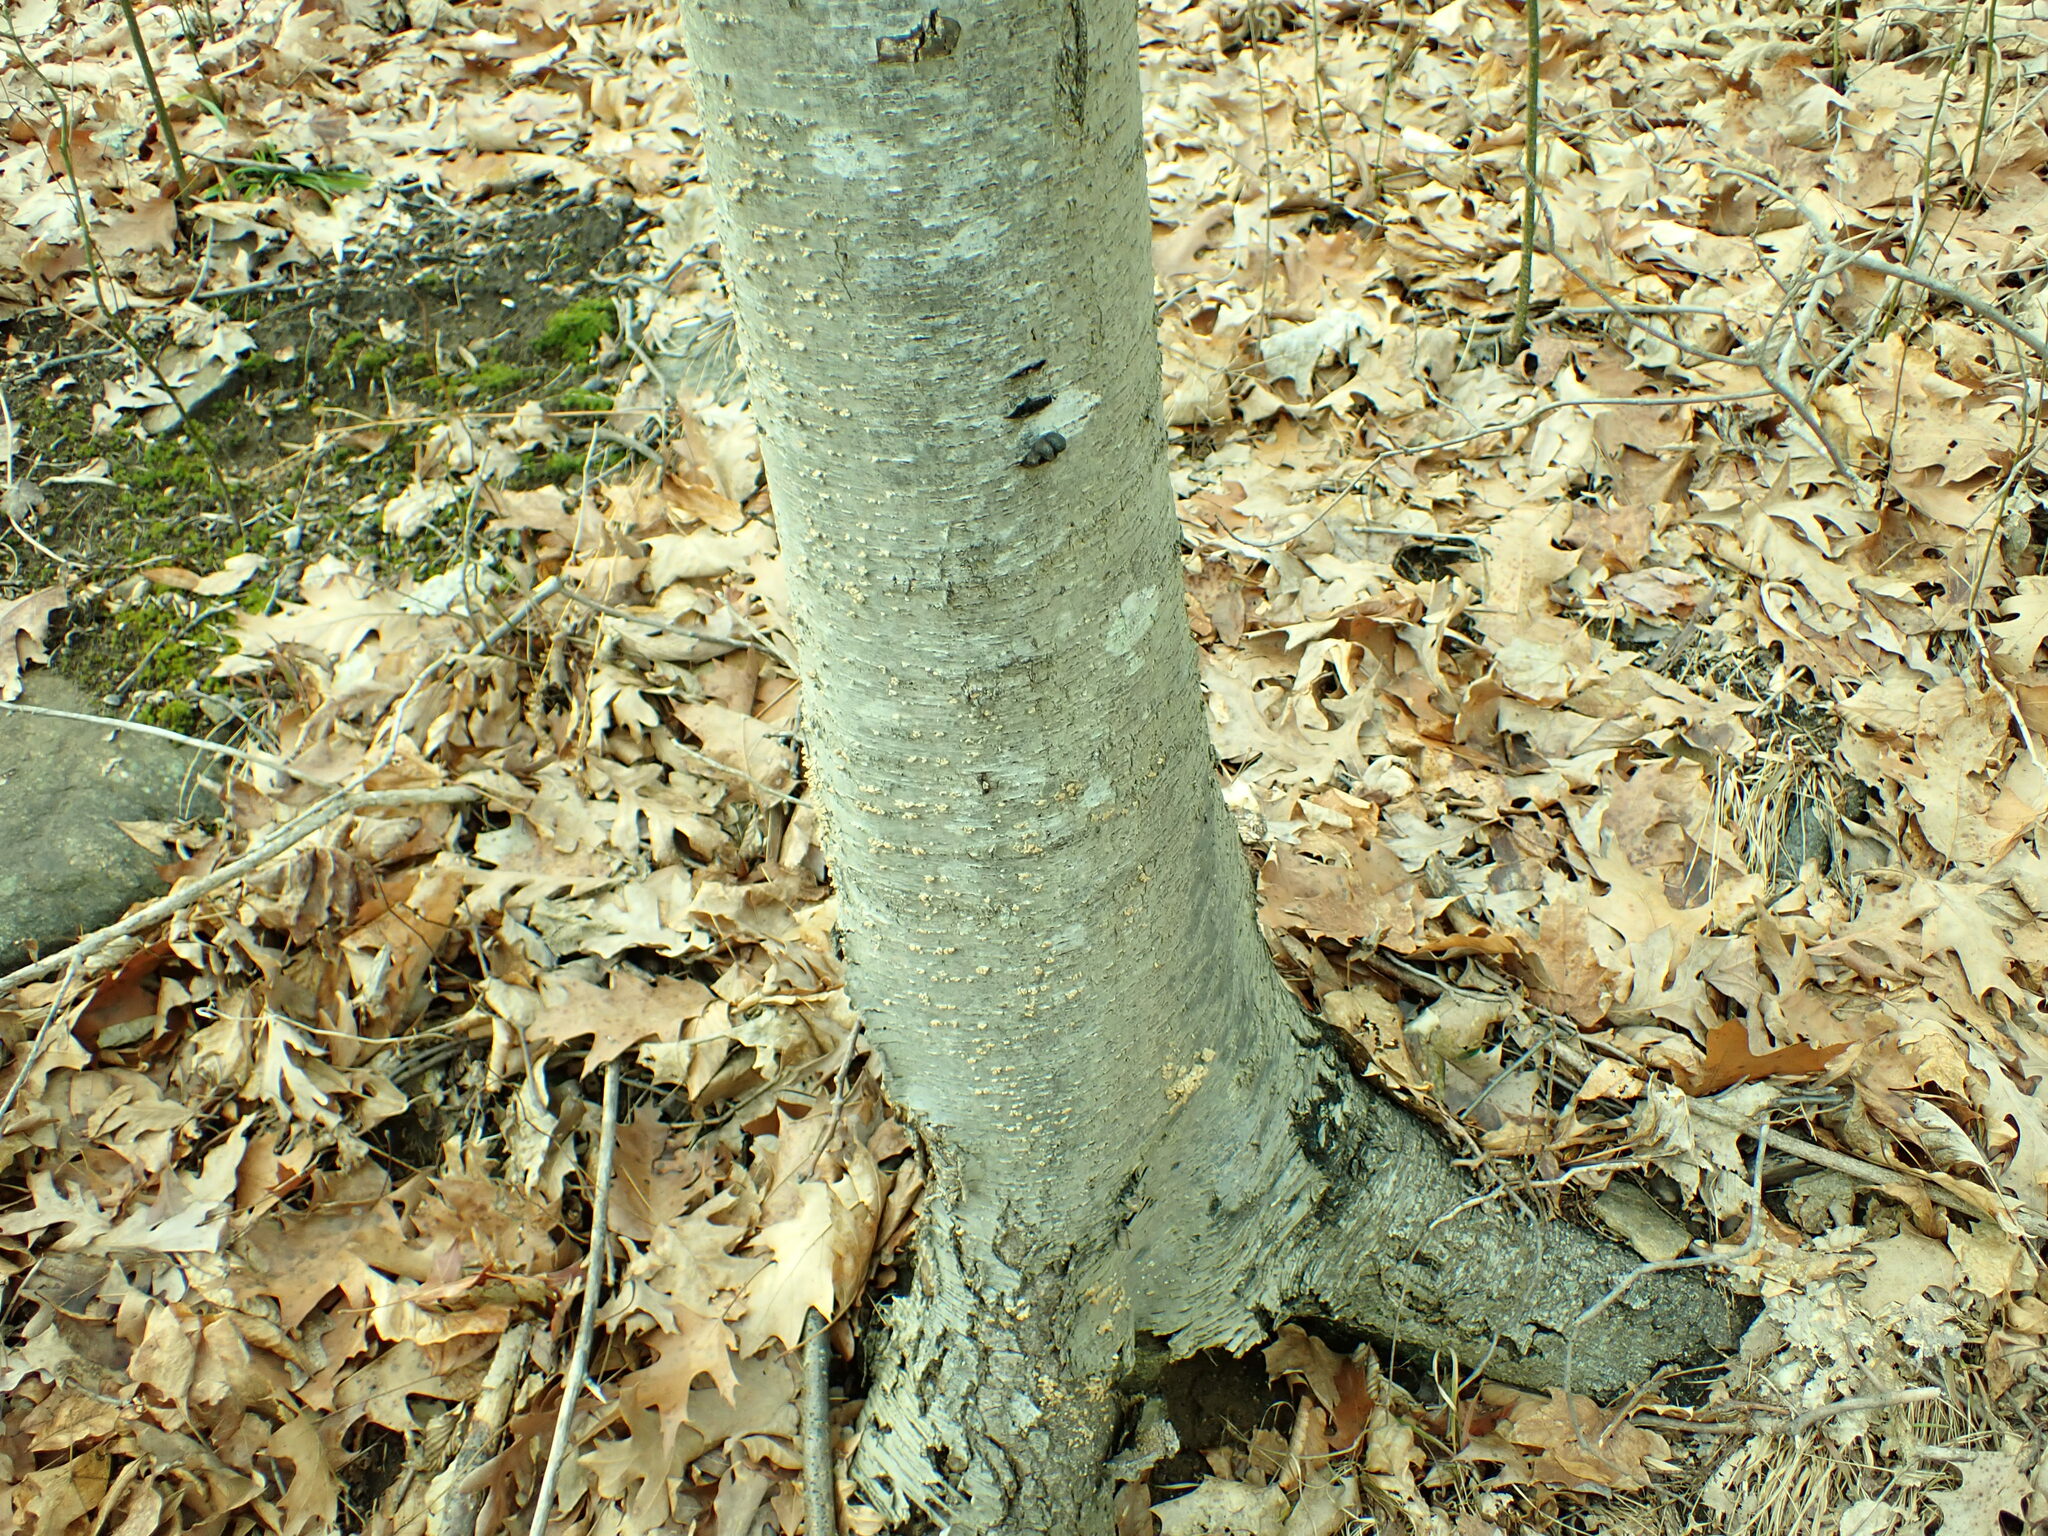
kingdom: Fungi
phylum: Basidiomycota
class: Agaricomycetes
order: Amylocorticiales
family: Amylocorticiaceae
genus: Plicaturopsis
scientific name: Plicaturopsis crispa
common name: Crimped gill
